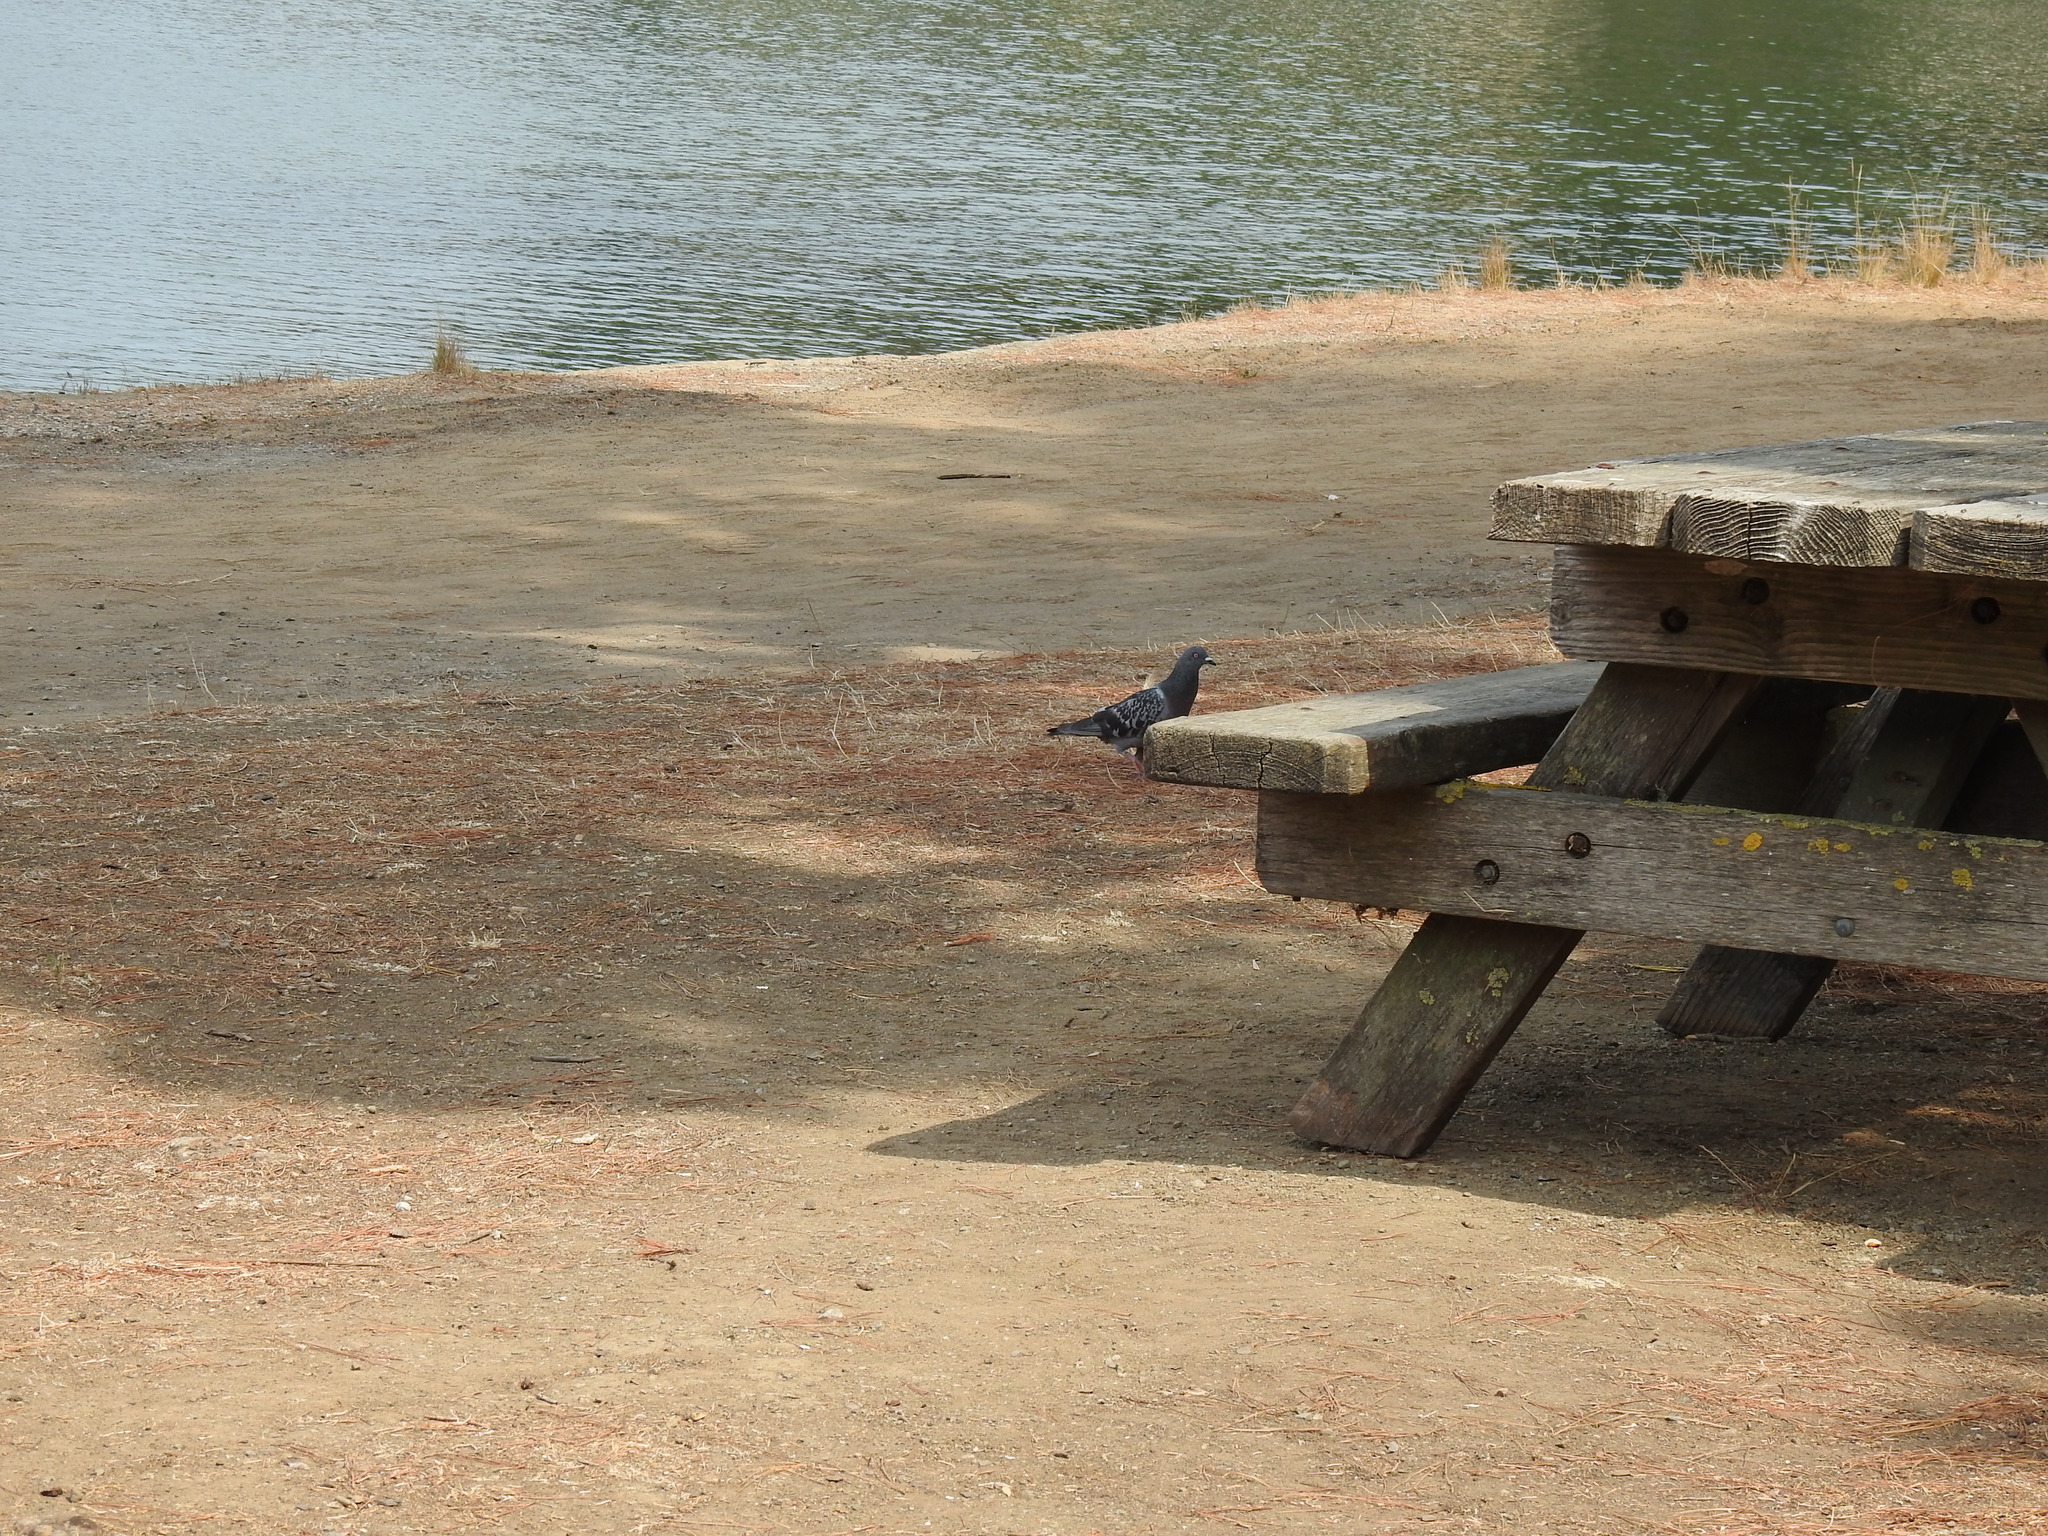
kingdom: Animalia
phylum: Chordata
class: Aves
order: Columbiformes
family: Columbidae
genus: Columba
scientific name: Columba livia
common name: Rock pigeon
